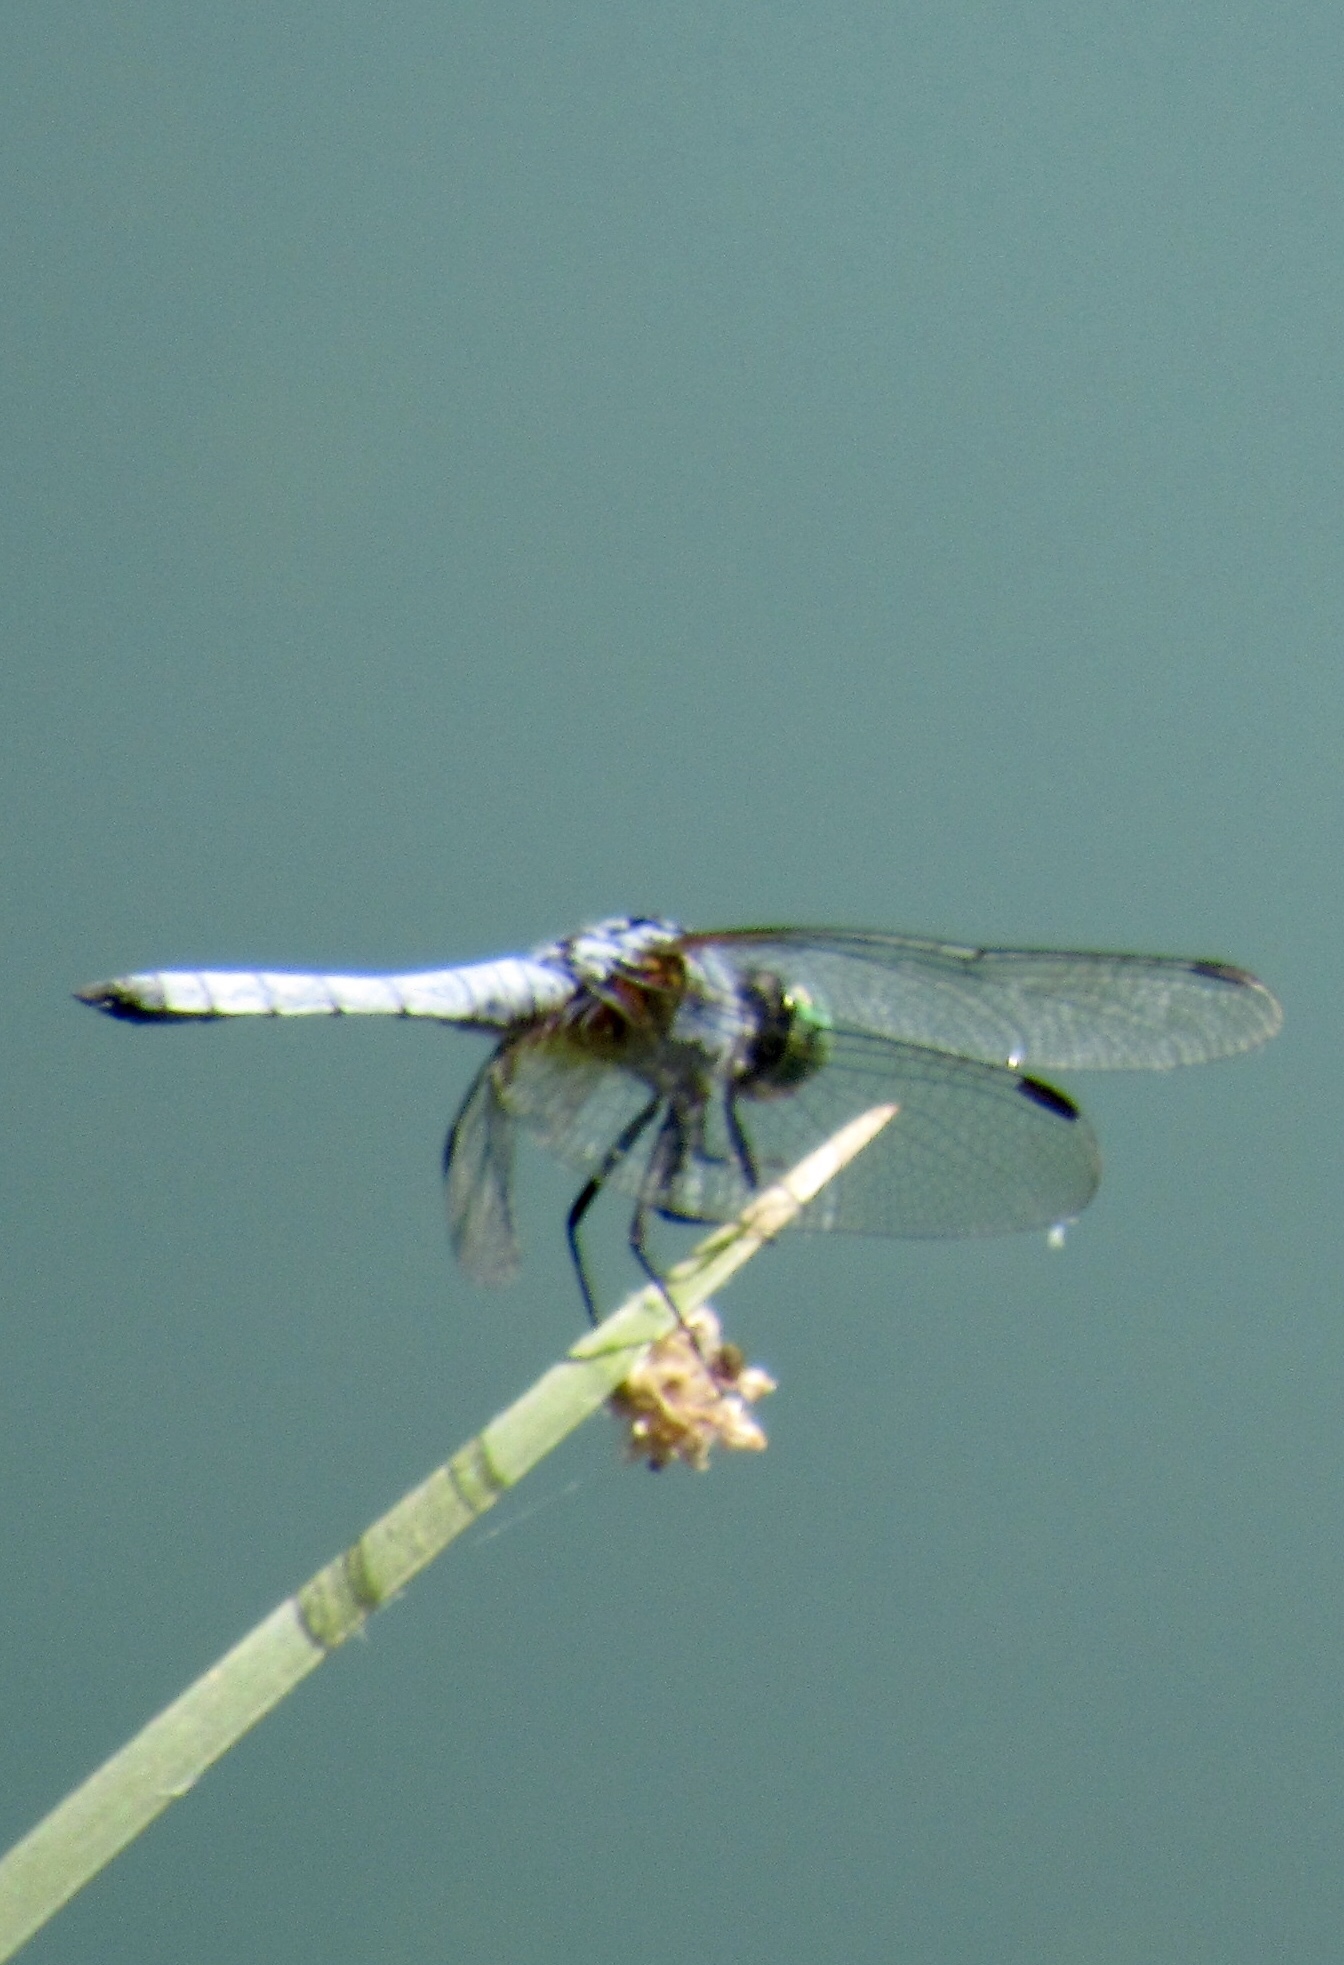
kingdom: Animalia
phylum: Arthropoda
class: Insecta
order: Odonata
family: Libellulidae
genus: Pachydiplax
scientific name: Pachydiplax longipennis
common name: Blue dasher
